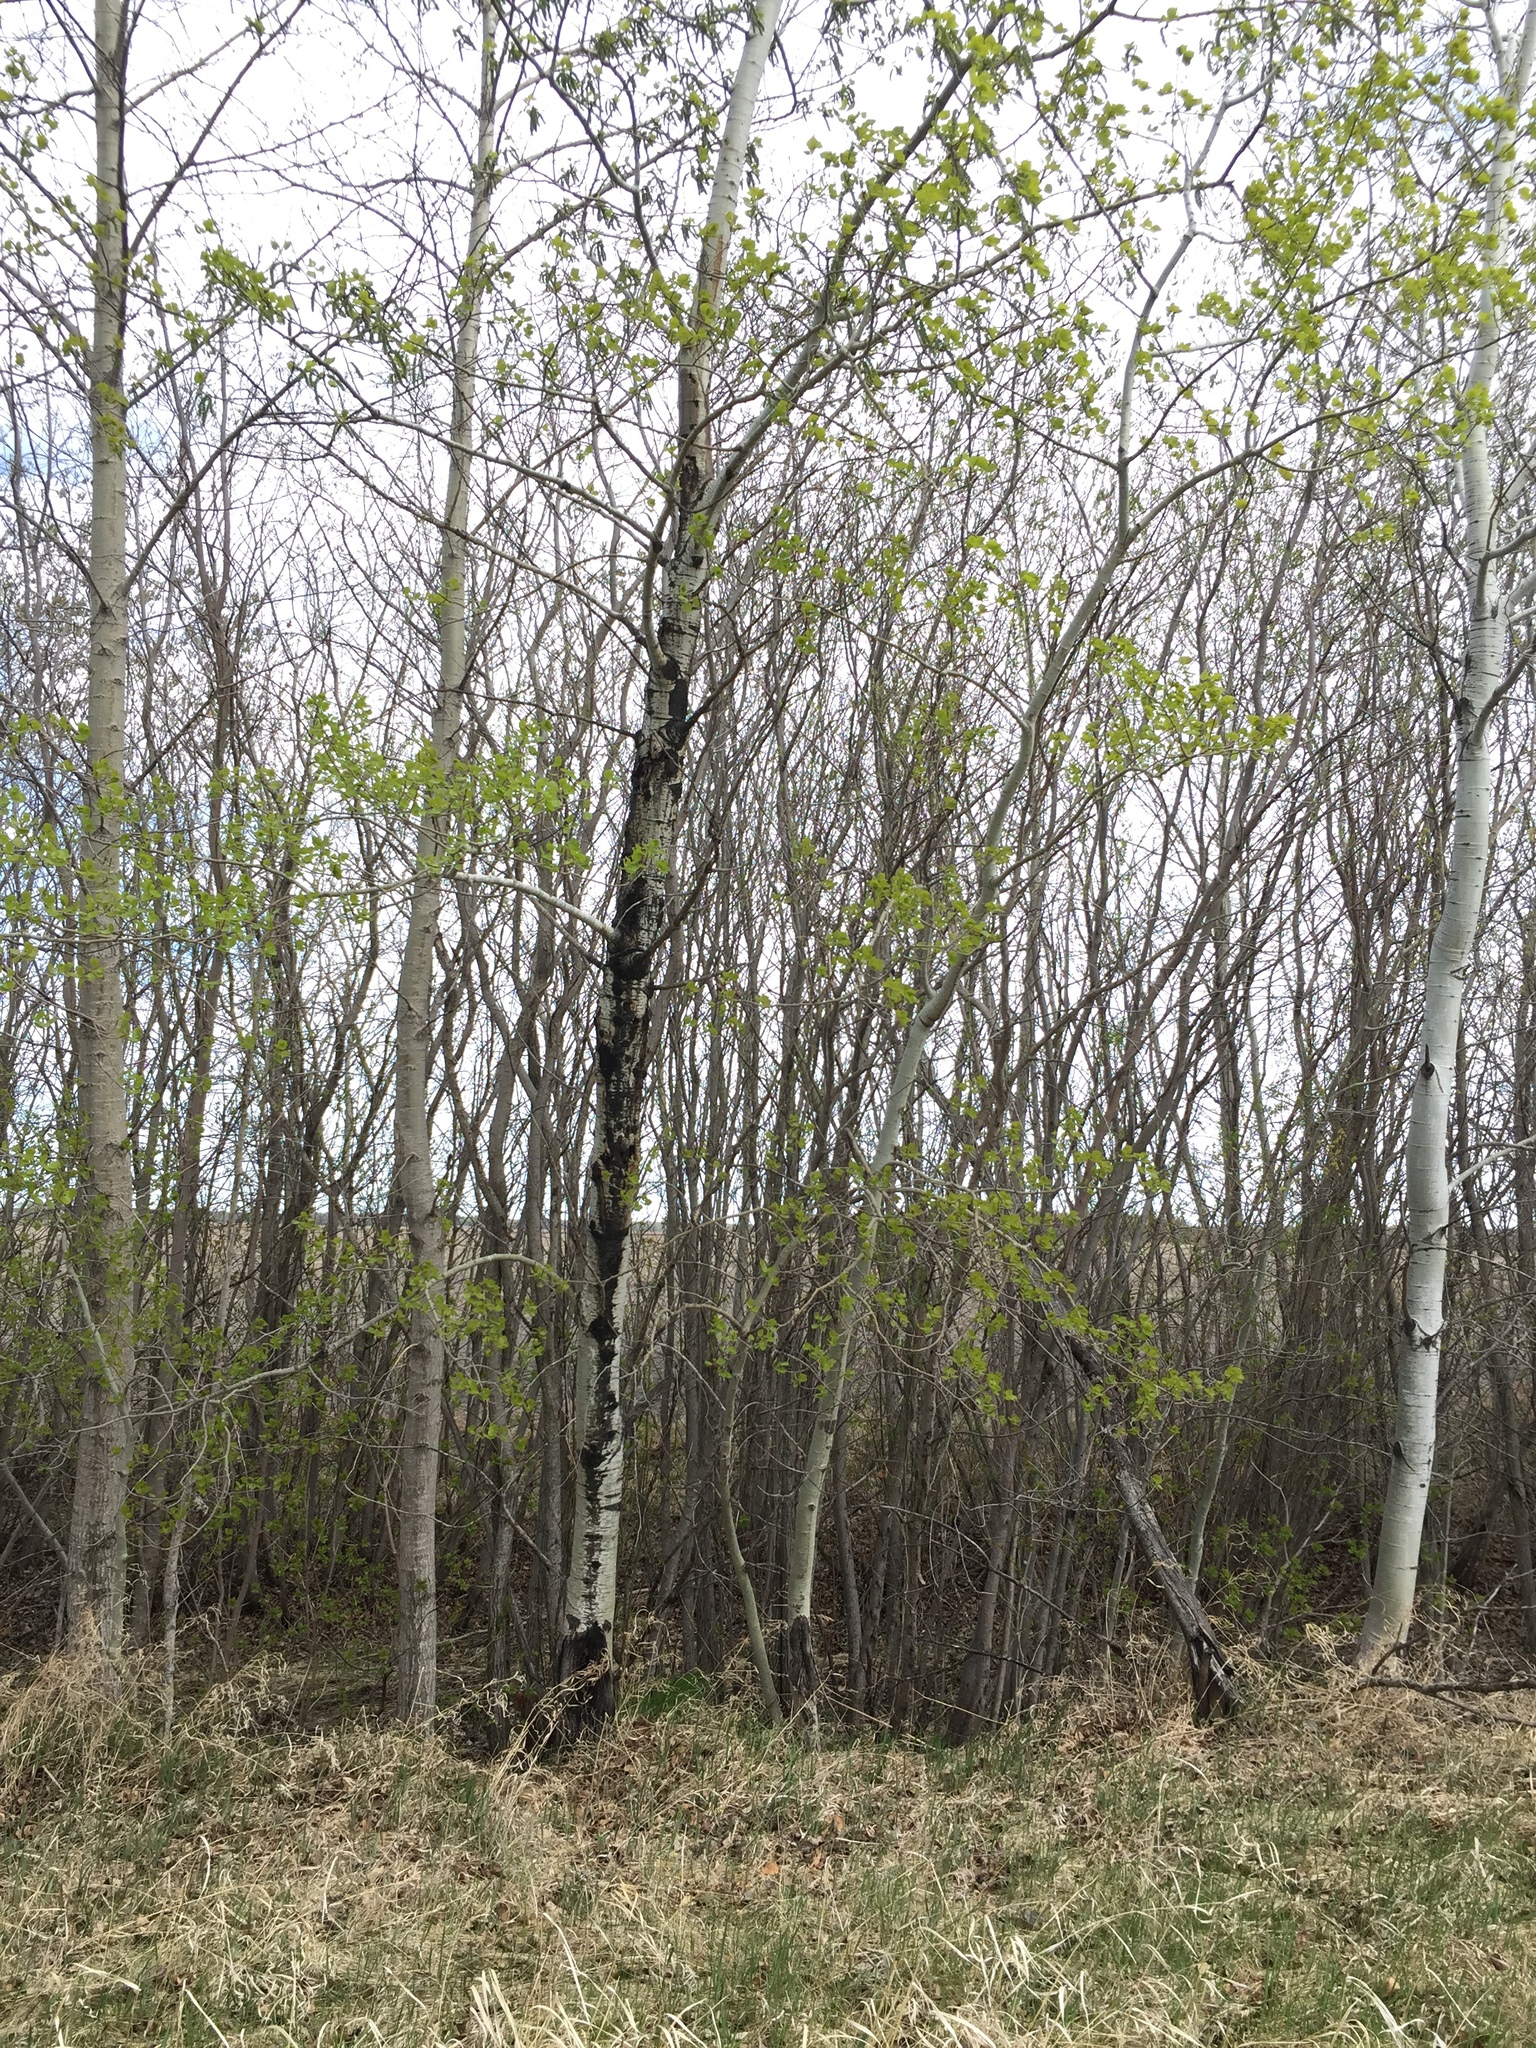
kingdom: Plantae
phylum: Tracheophyta
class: Magnoliopsida
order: Malpighiales
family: Salicaceae
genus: Populus
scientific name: Populus tremuloides
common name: Quaking aspen
